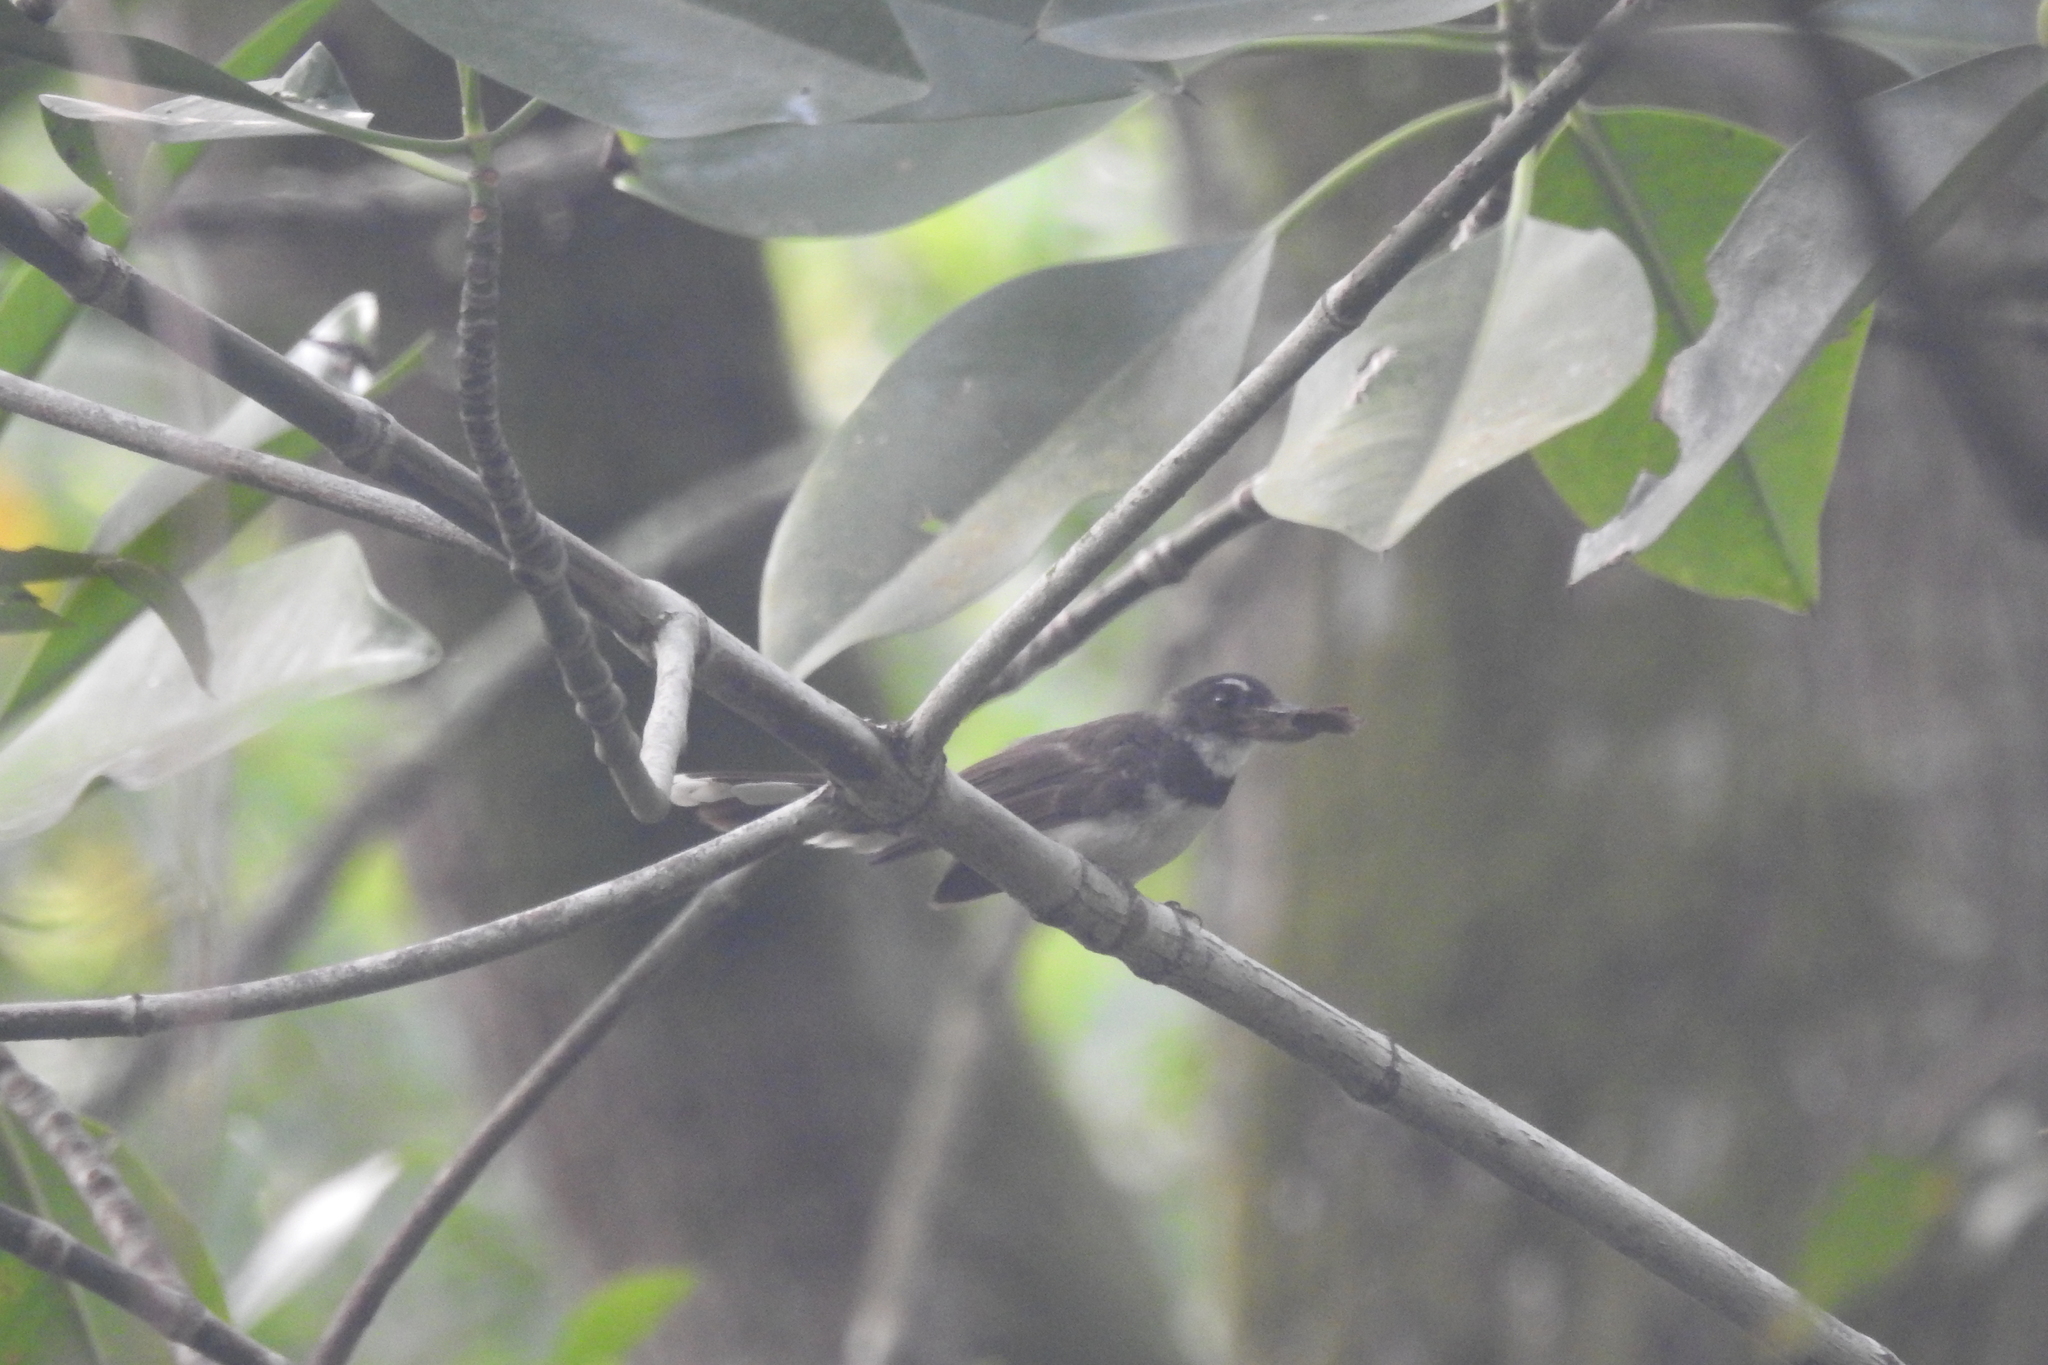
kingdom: Animalia
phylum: Chordata
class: Aves
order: Passeriformes
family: Rhipiduridae
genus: Rhipidura
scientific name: Rhipidura javanica
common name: Pied fantail
